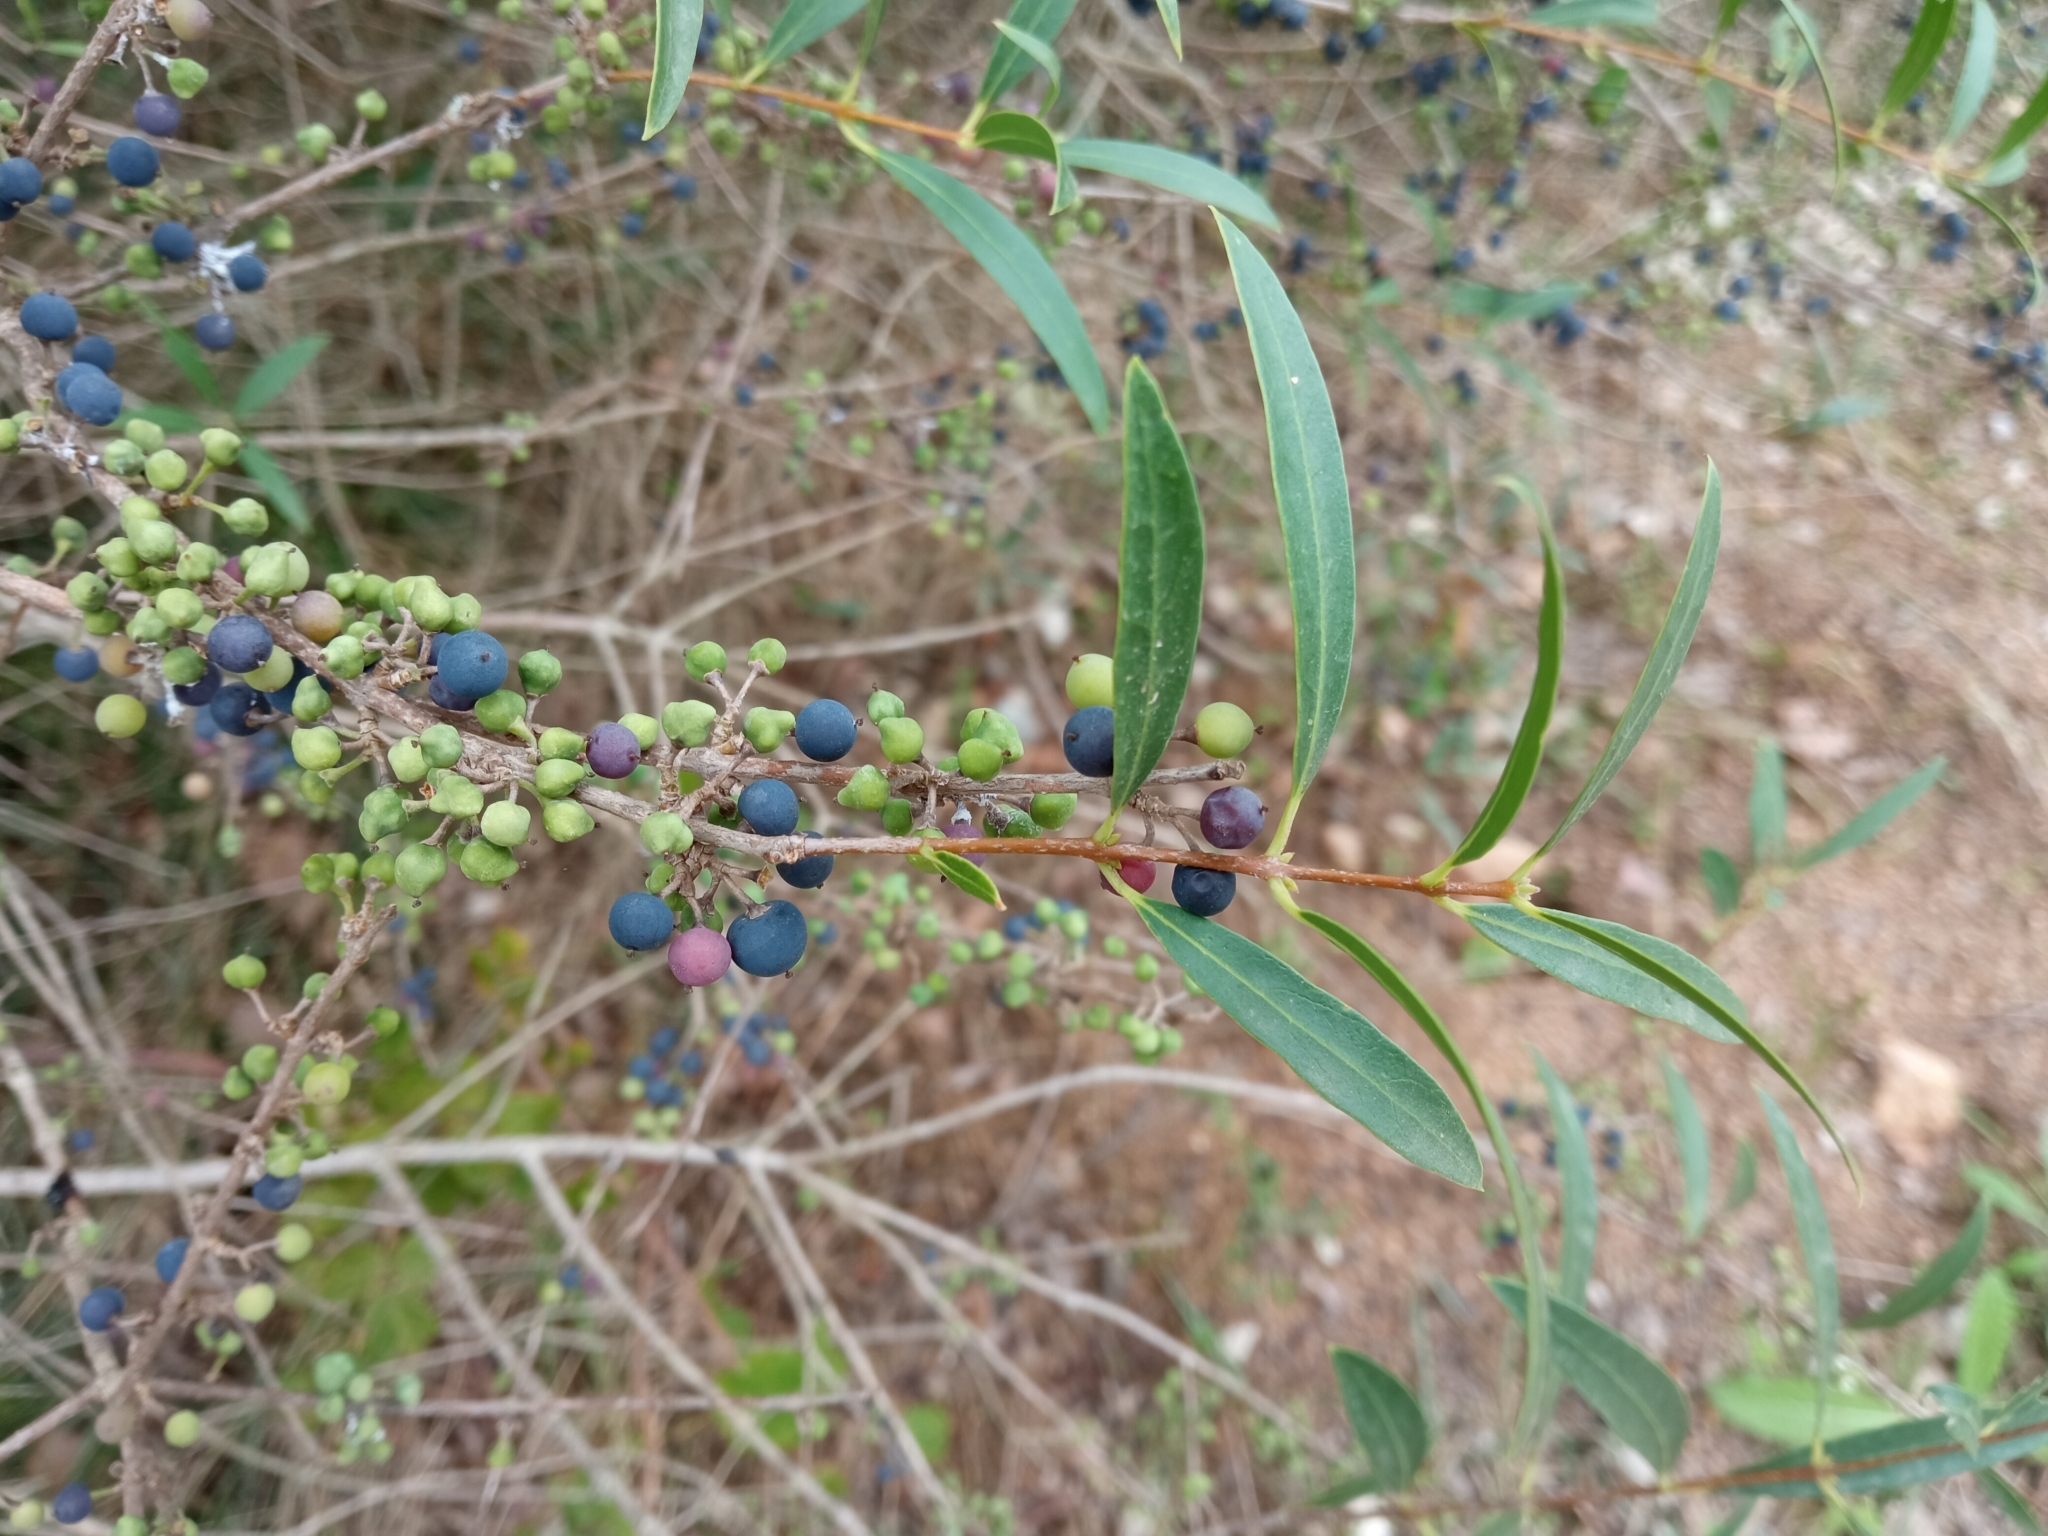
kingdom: Plantae
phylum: Tracheophyta
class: Magnoliopsida
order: Lamiales
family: Oleaceae
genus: Phillyrea
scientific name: Phillyrea angustifolia
